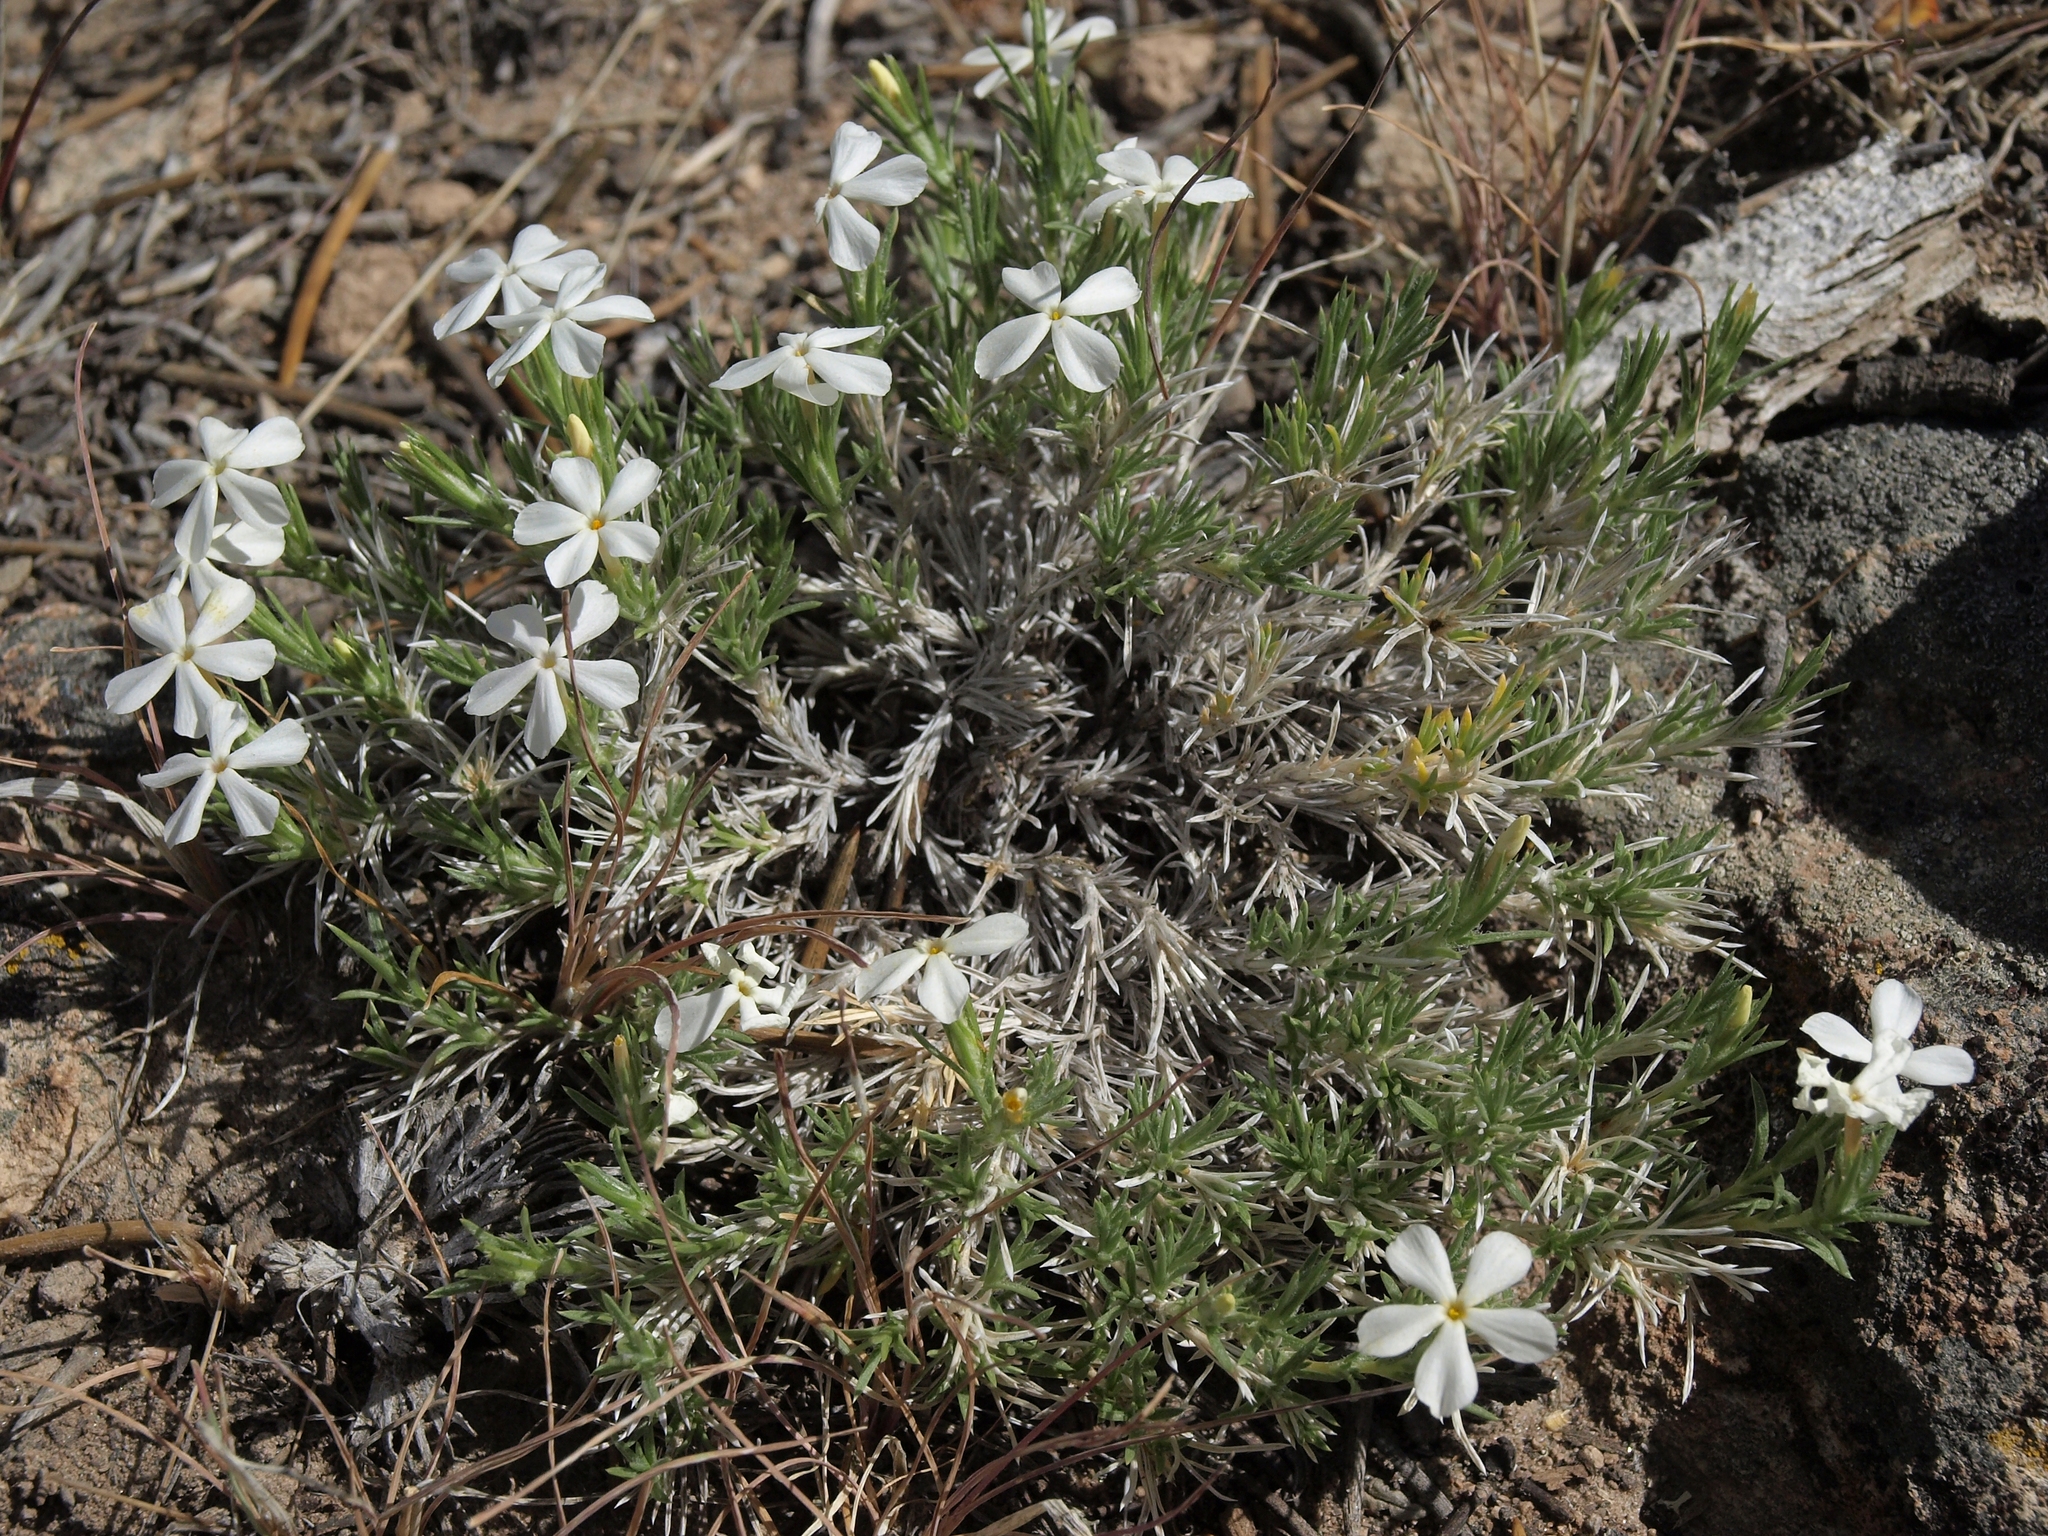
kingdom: Plantae
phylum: Tracheophyta
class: Magnoliopsida
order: Ericales
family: Polemoniaceae
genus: Phlox
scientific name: Phlox hoodii
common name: Moss phlox
